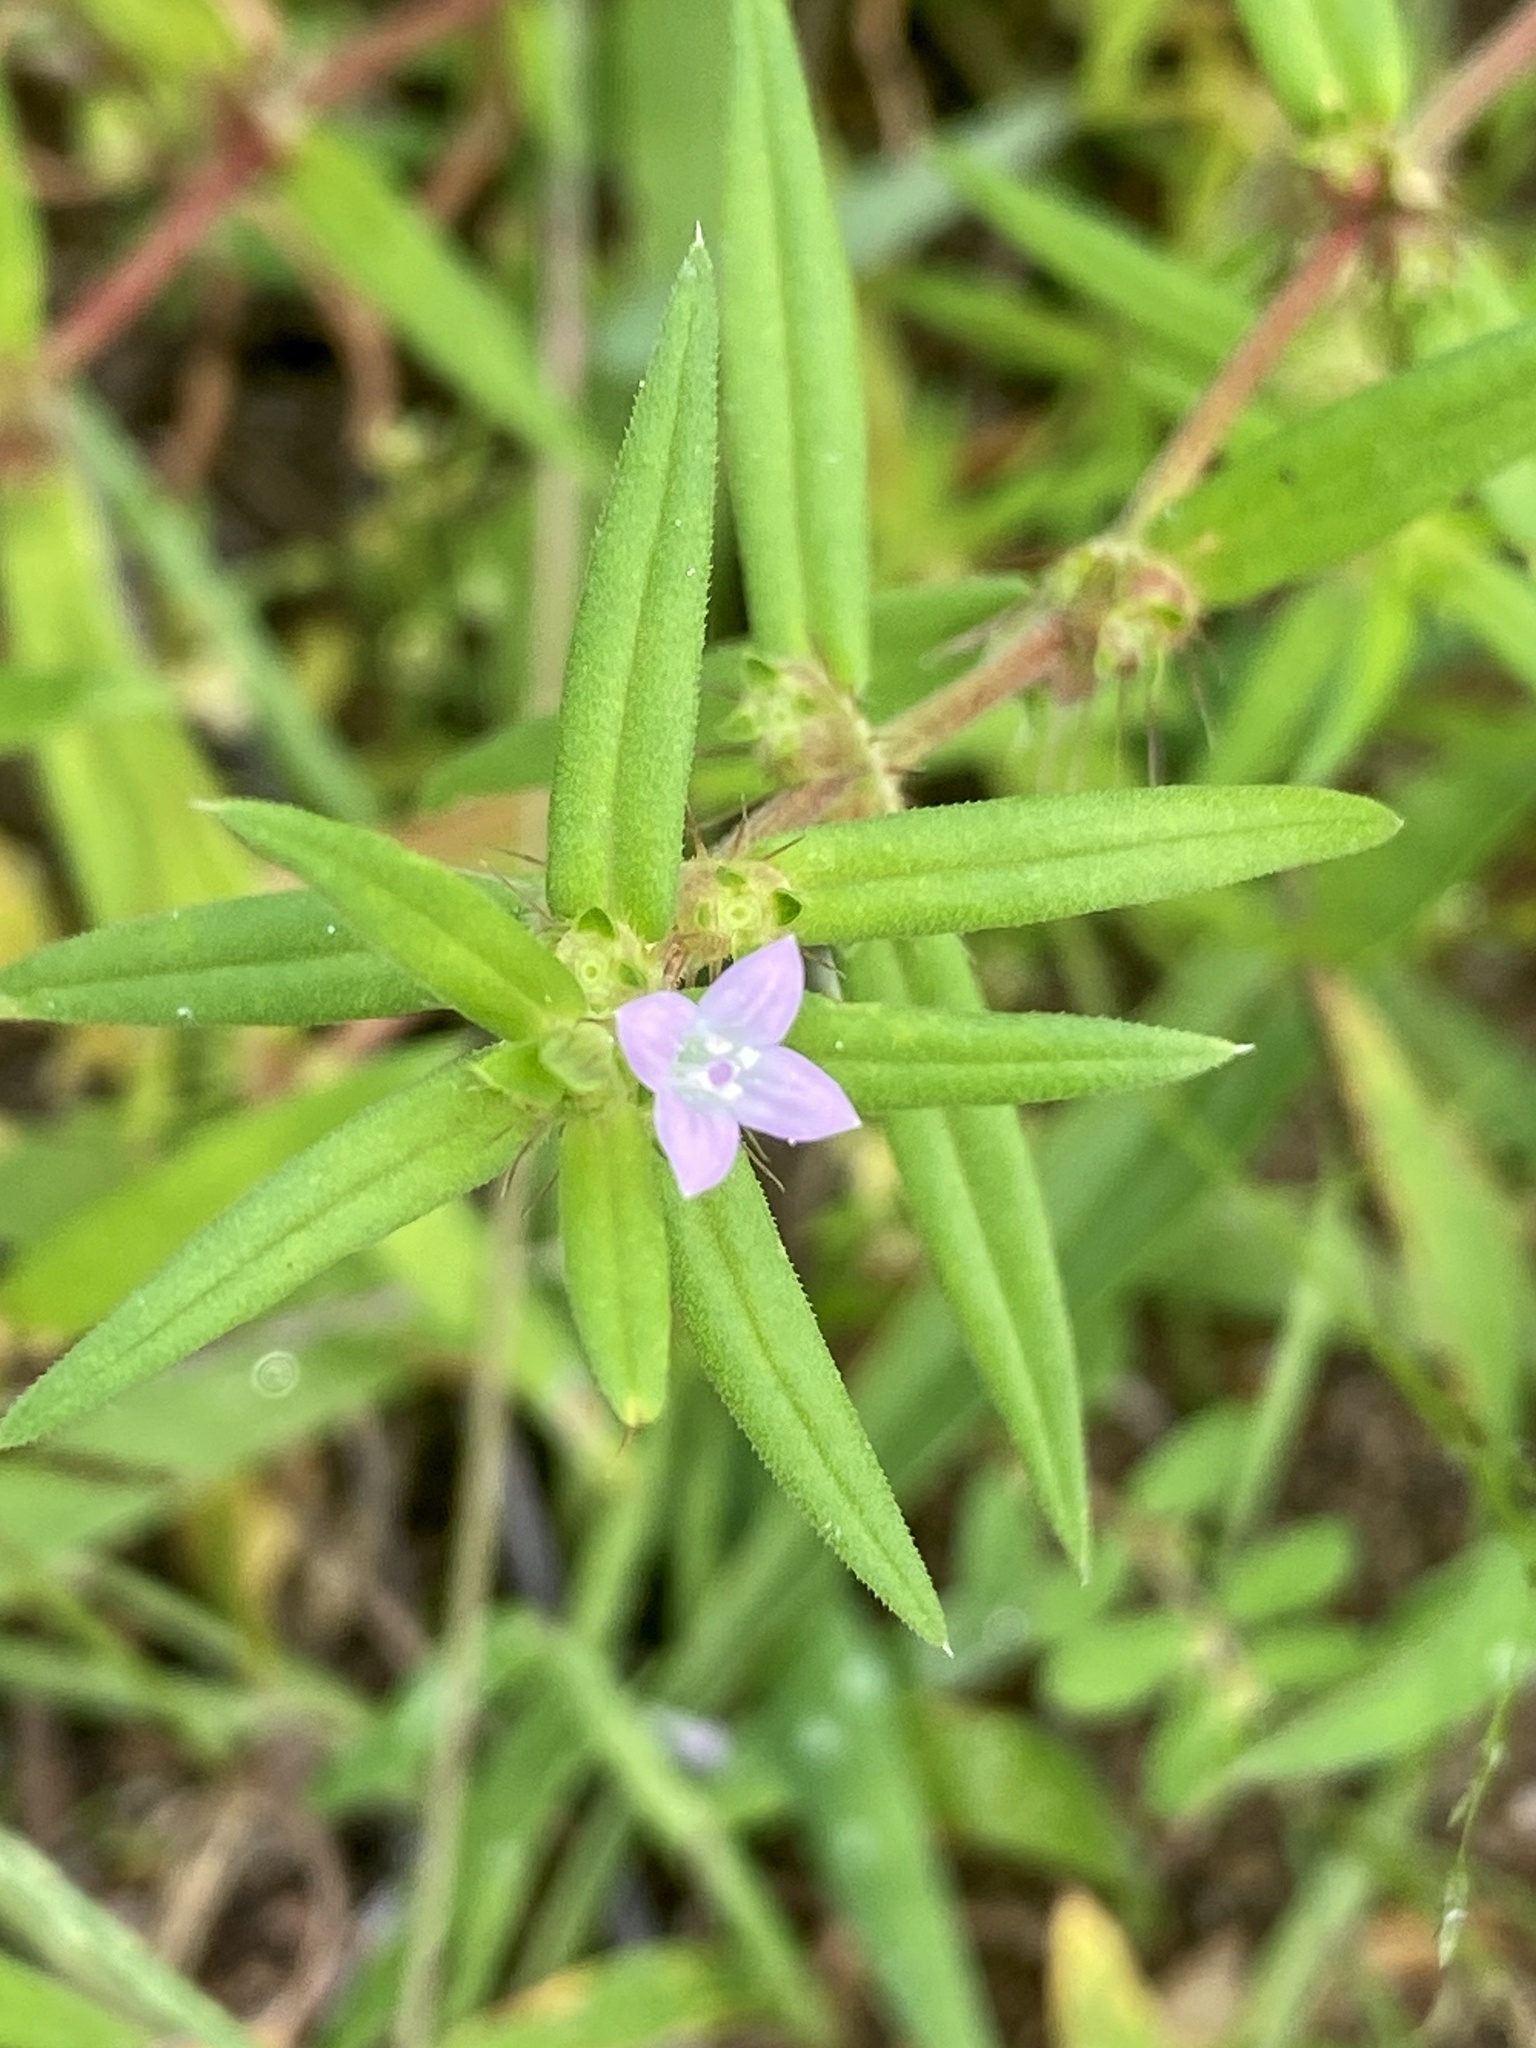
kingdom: Plantae
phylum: Tracheophyta
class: Magnoliopsida
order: Gentianales
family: Rubiaceae
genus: Hexasepalum
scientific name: Hexasepalum teres
